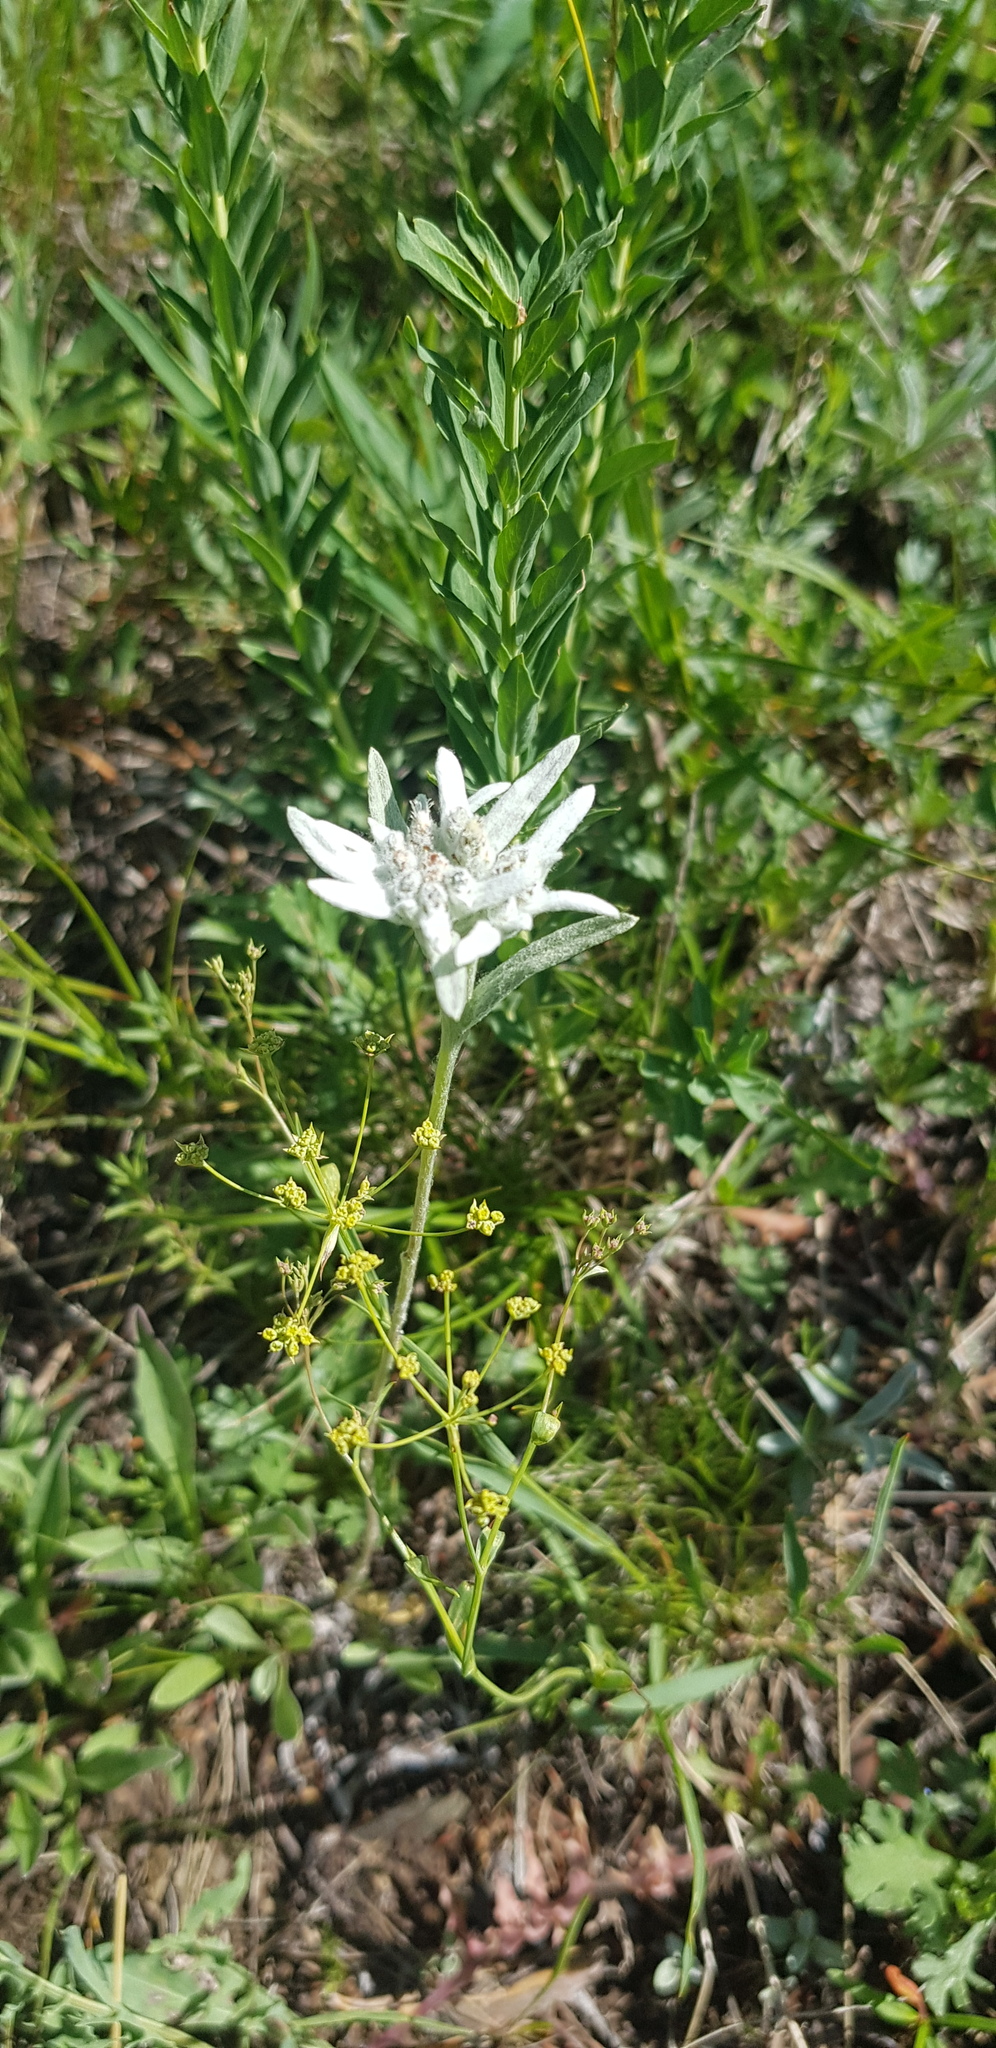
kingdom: Plantae
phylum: Tracheophyta
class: Magnoliopsida
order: Asterales
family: Asteraceae
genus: Leontopodium
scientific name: Leontopodium leontopodioides
